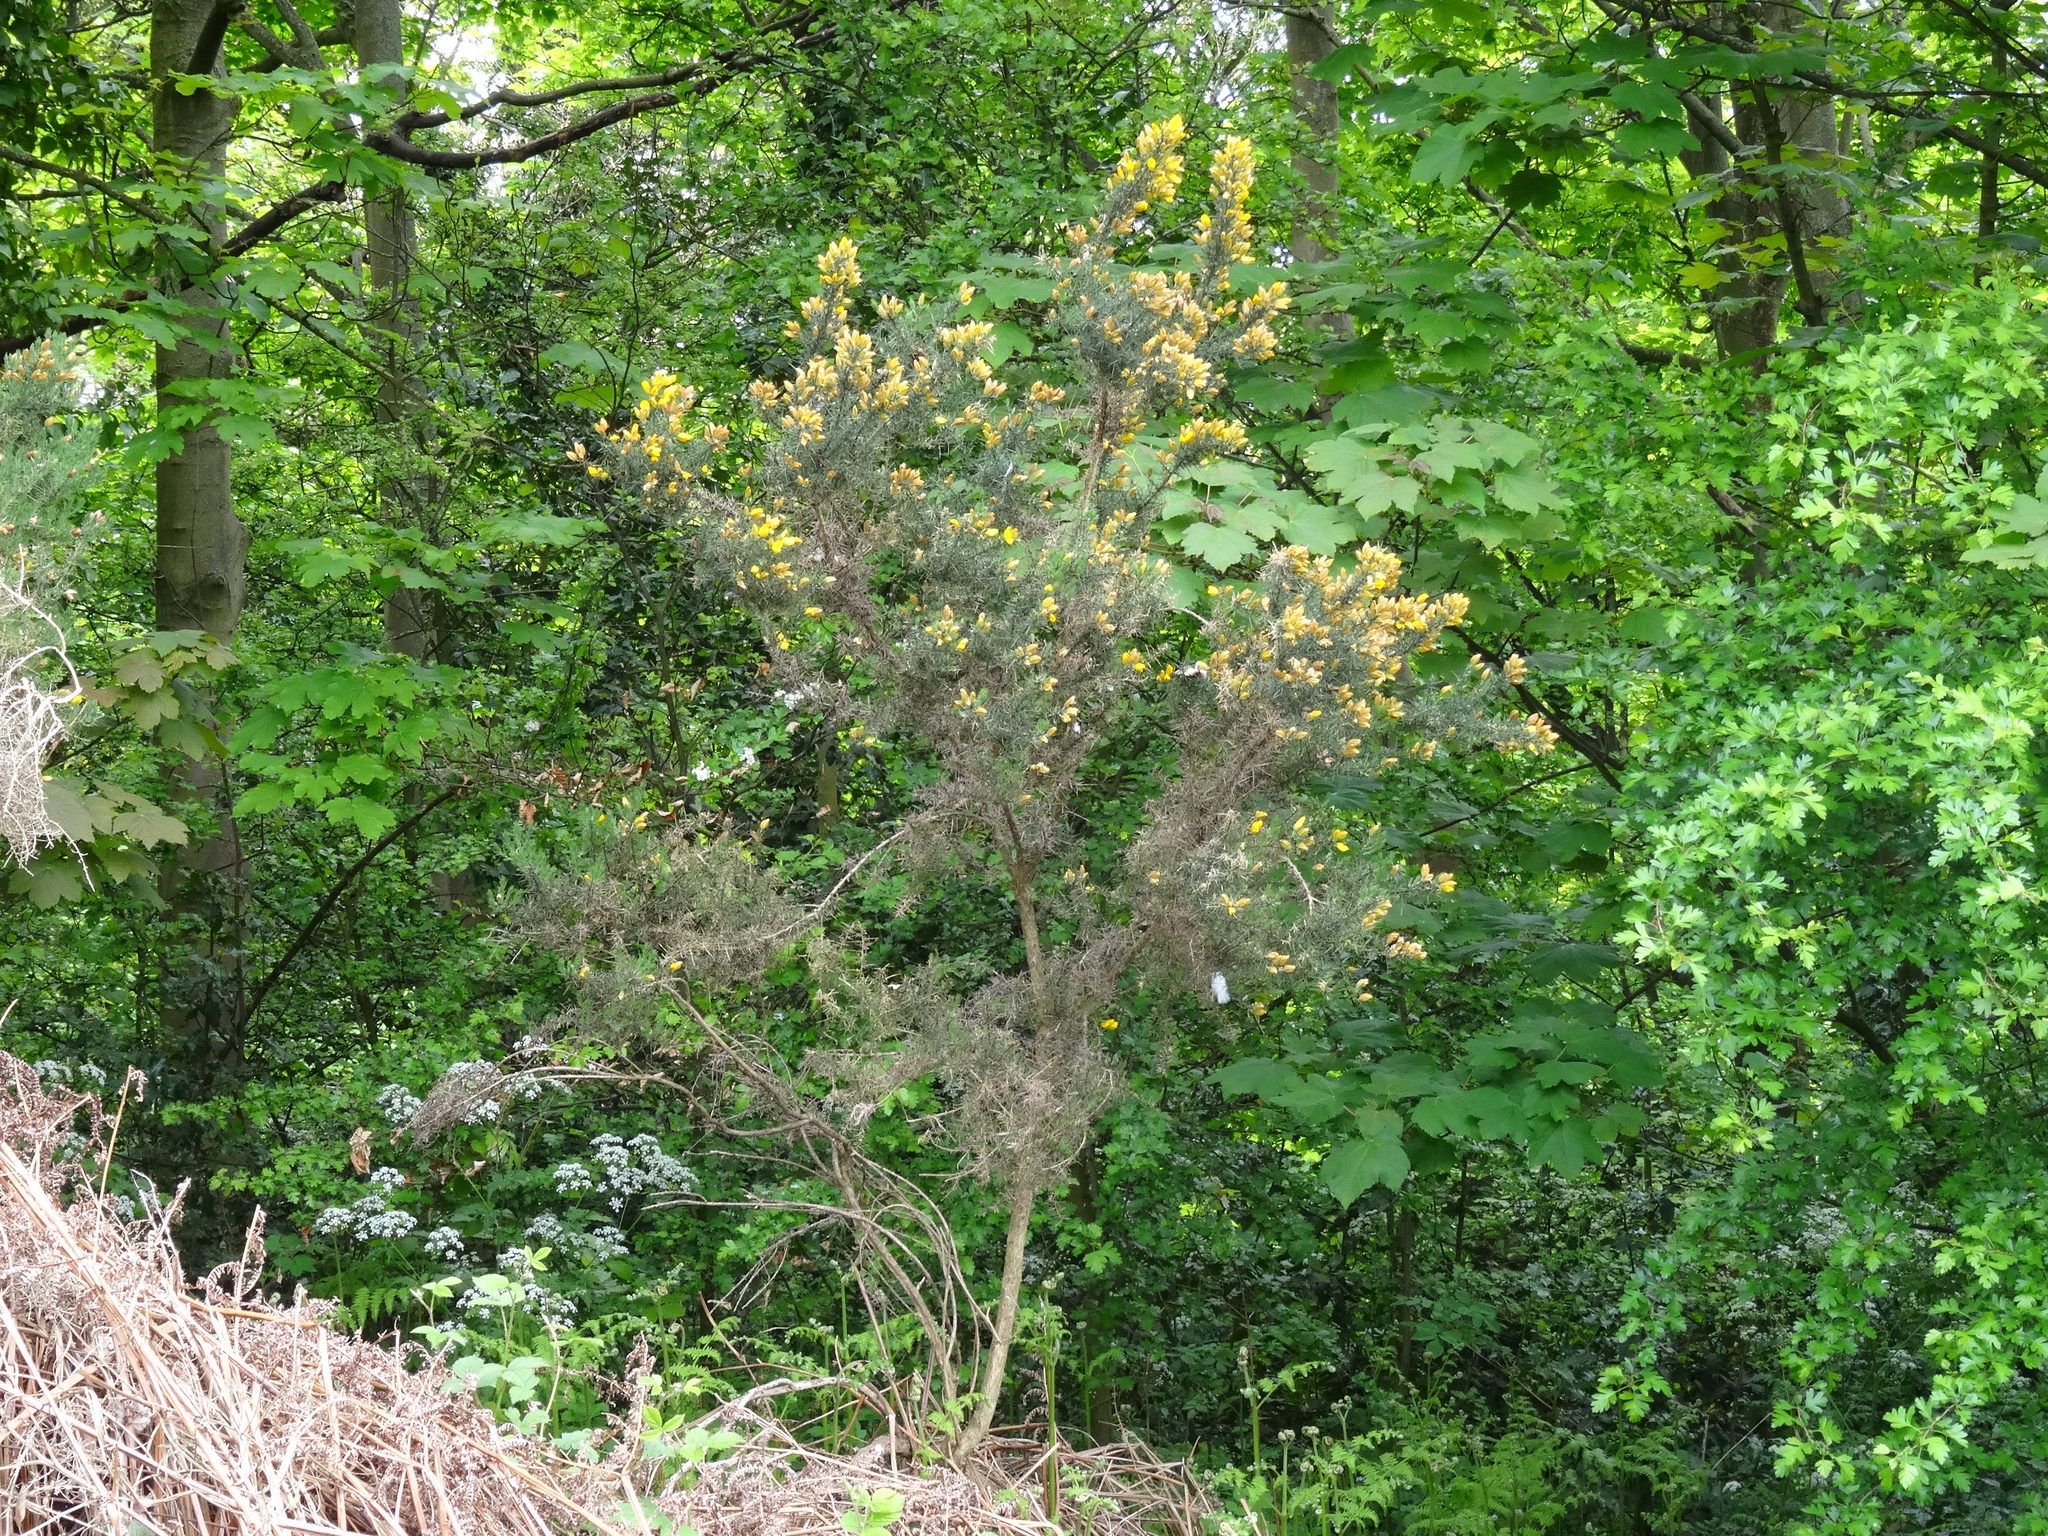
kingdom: Plantae
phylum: Tracheophyta
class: Magnoliopsida
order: Fabales
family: Fabaceae
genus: Ulex
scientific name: Ulex europaeus
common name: Common gorse
